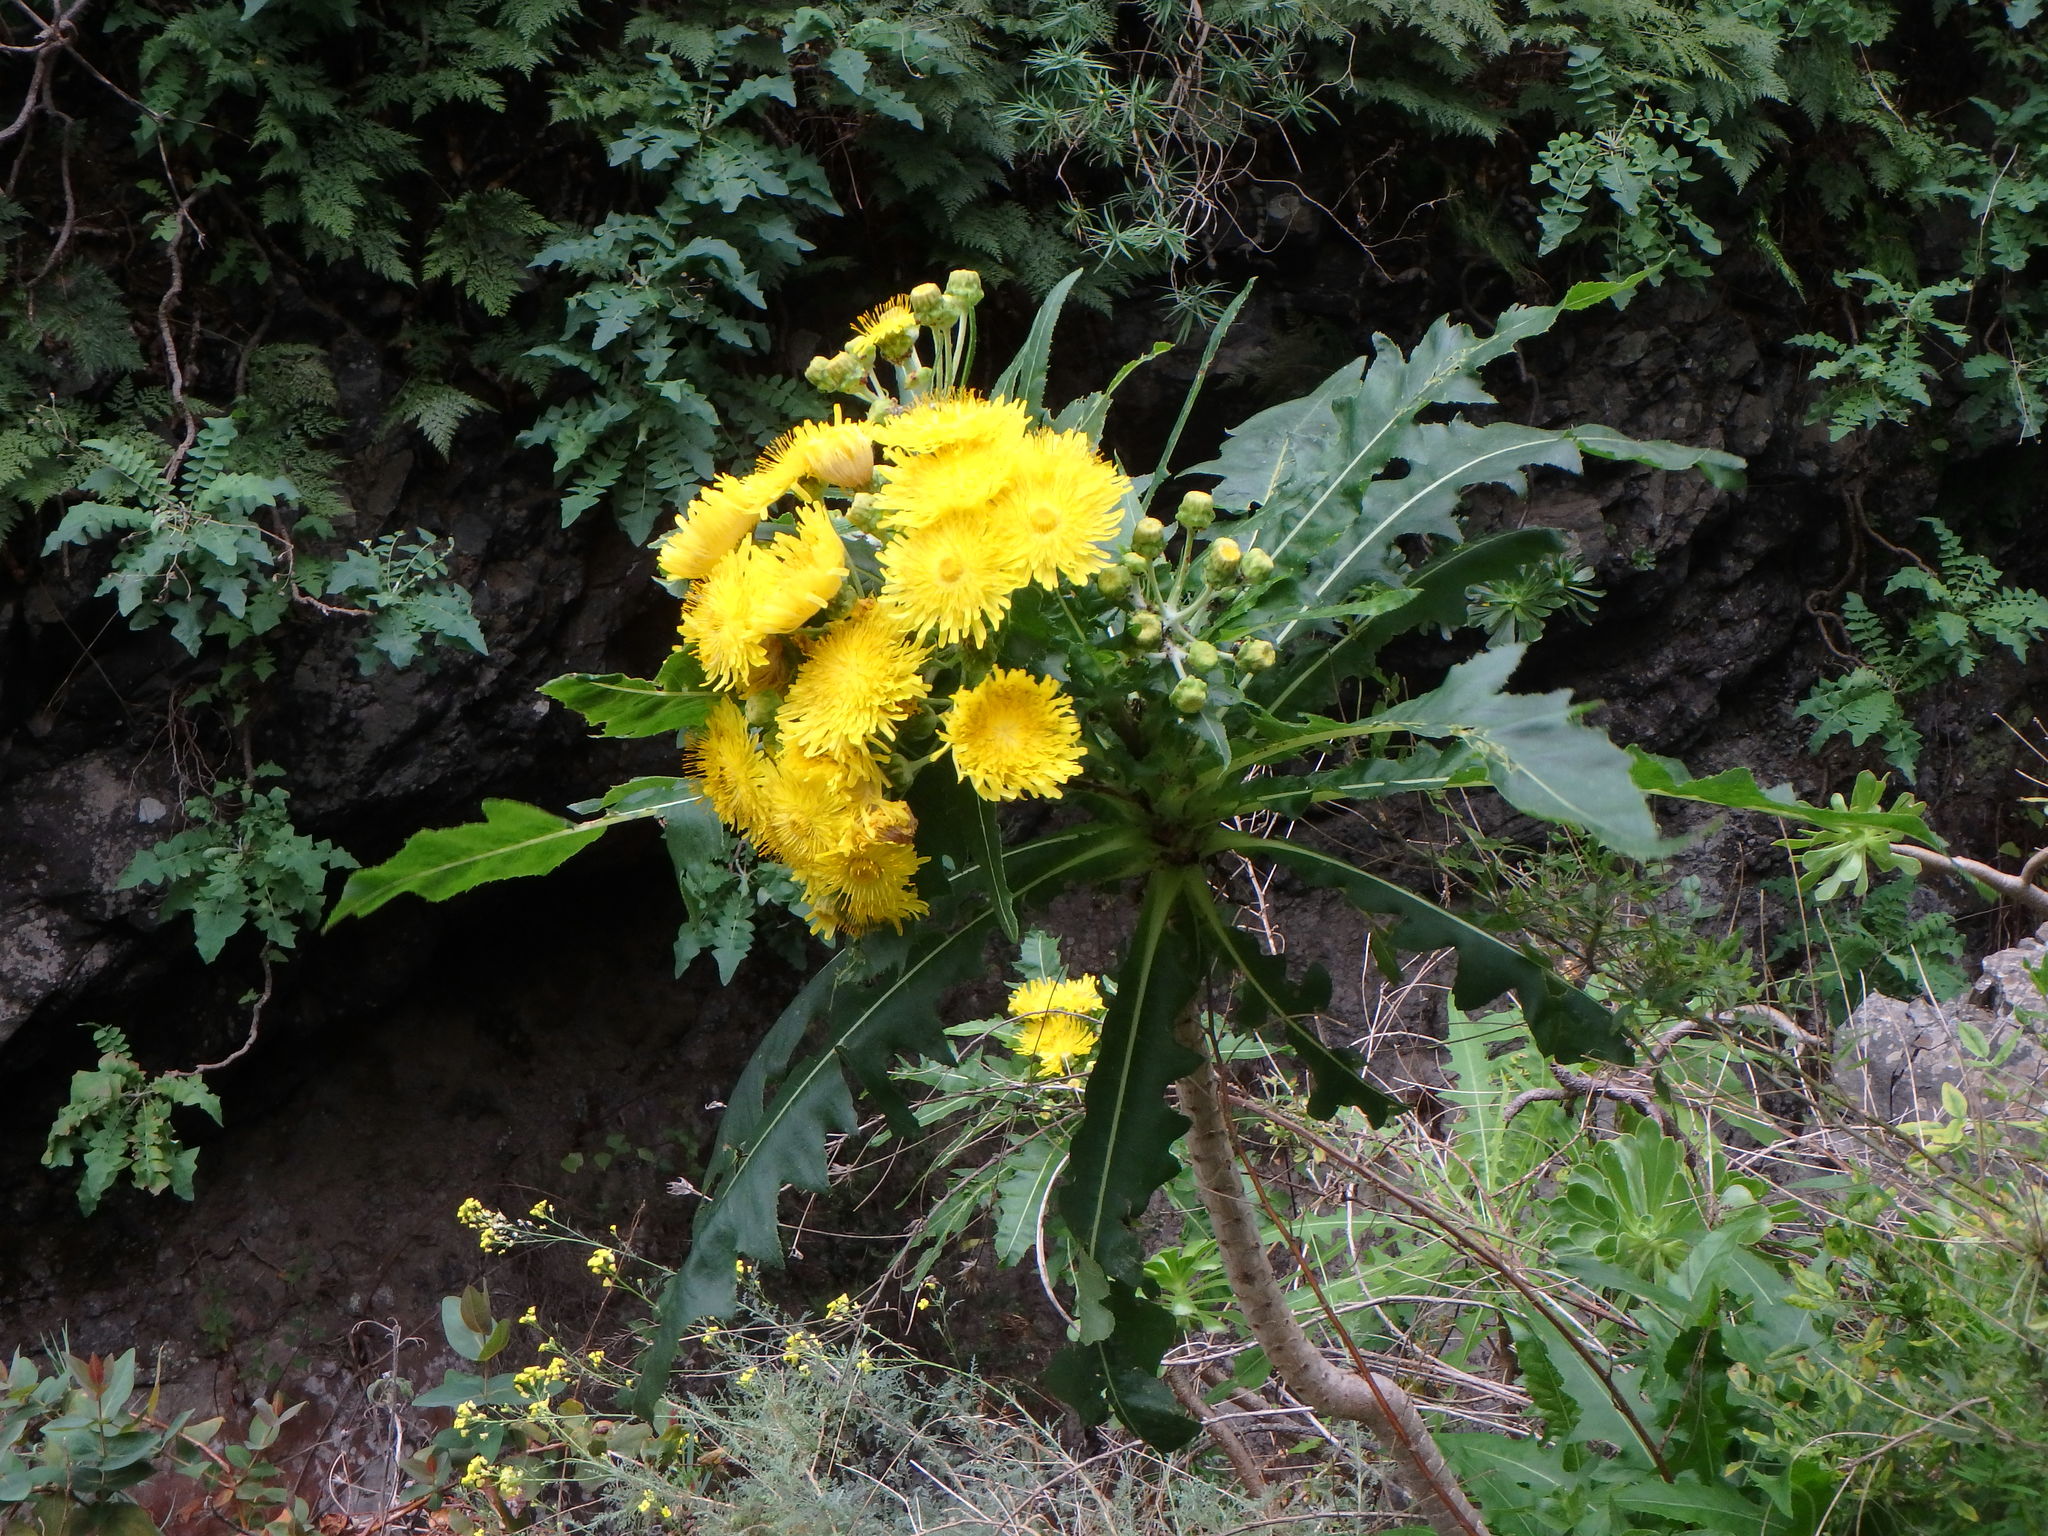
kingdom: Plantae
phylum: Tracheophyta
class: Magnoliopsida
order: Asterales
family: Asteraceae
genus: Sonchus
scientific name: Sonchus congestus
